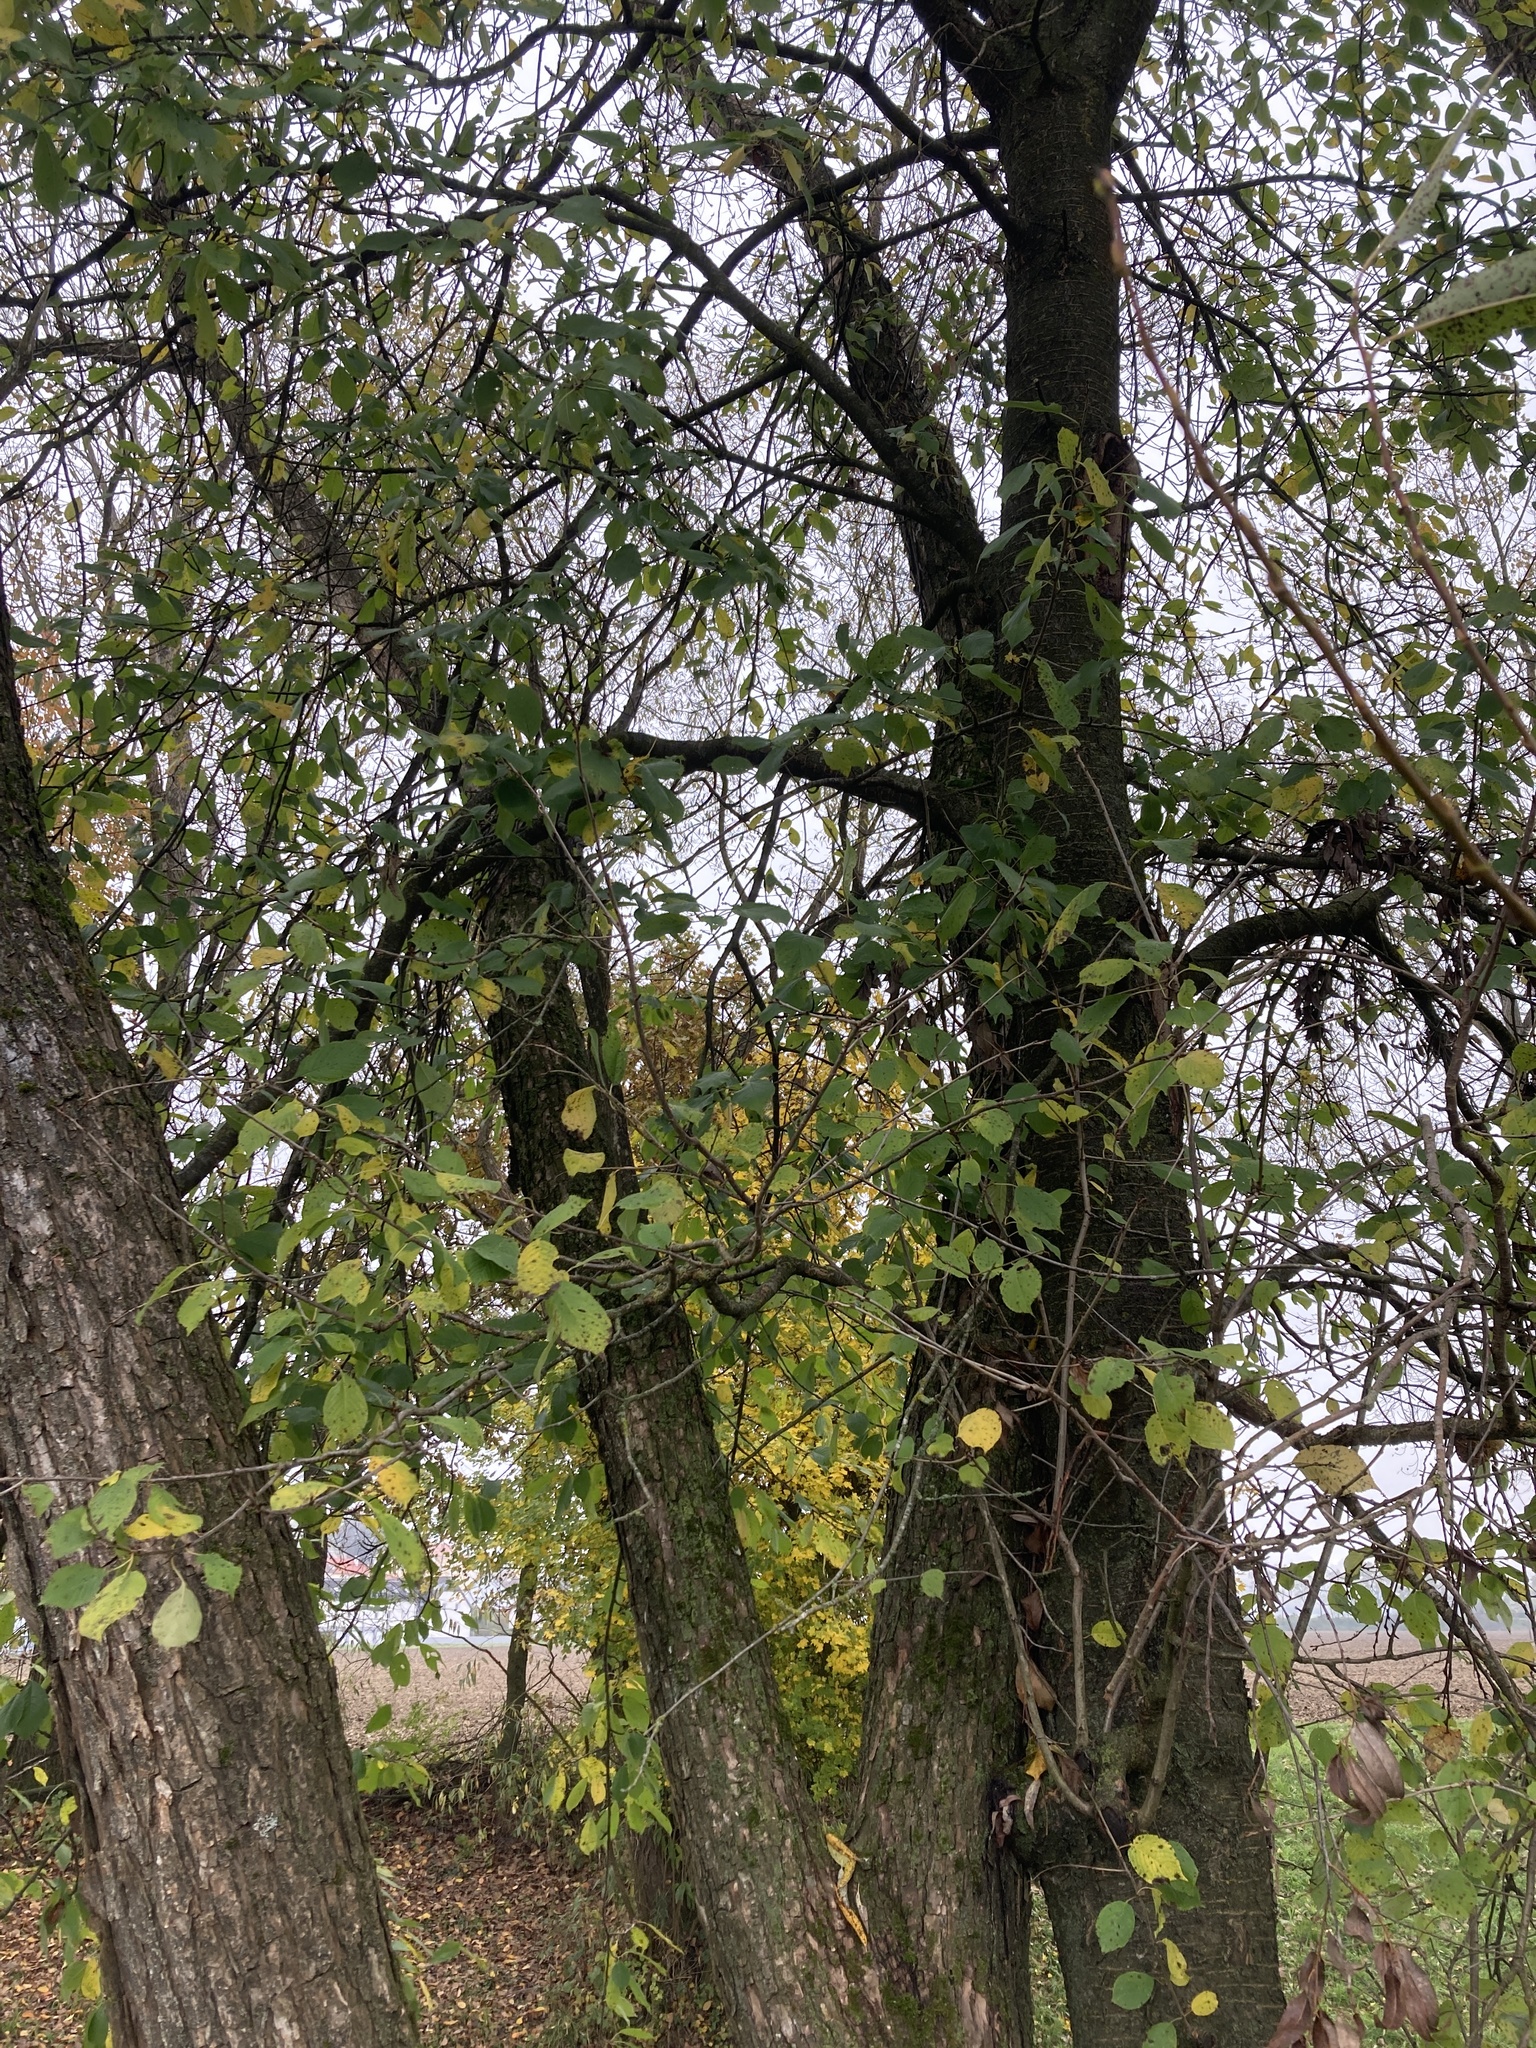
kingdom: Plantae
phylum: Tracheophyta
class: Magnoliopsida
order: Rosales
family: Rosaceae
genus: Prunus
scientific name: Prunus avium
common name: Sweet cherry
